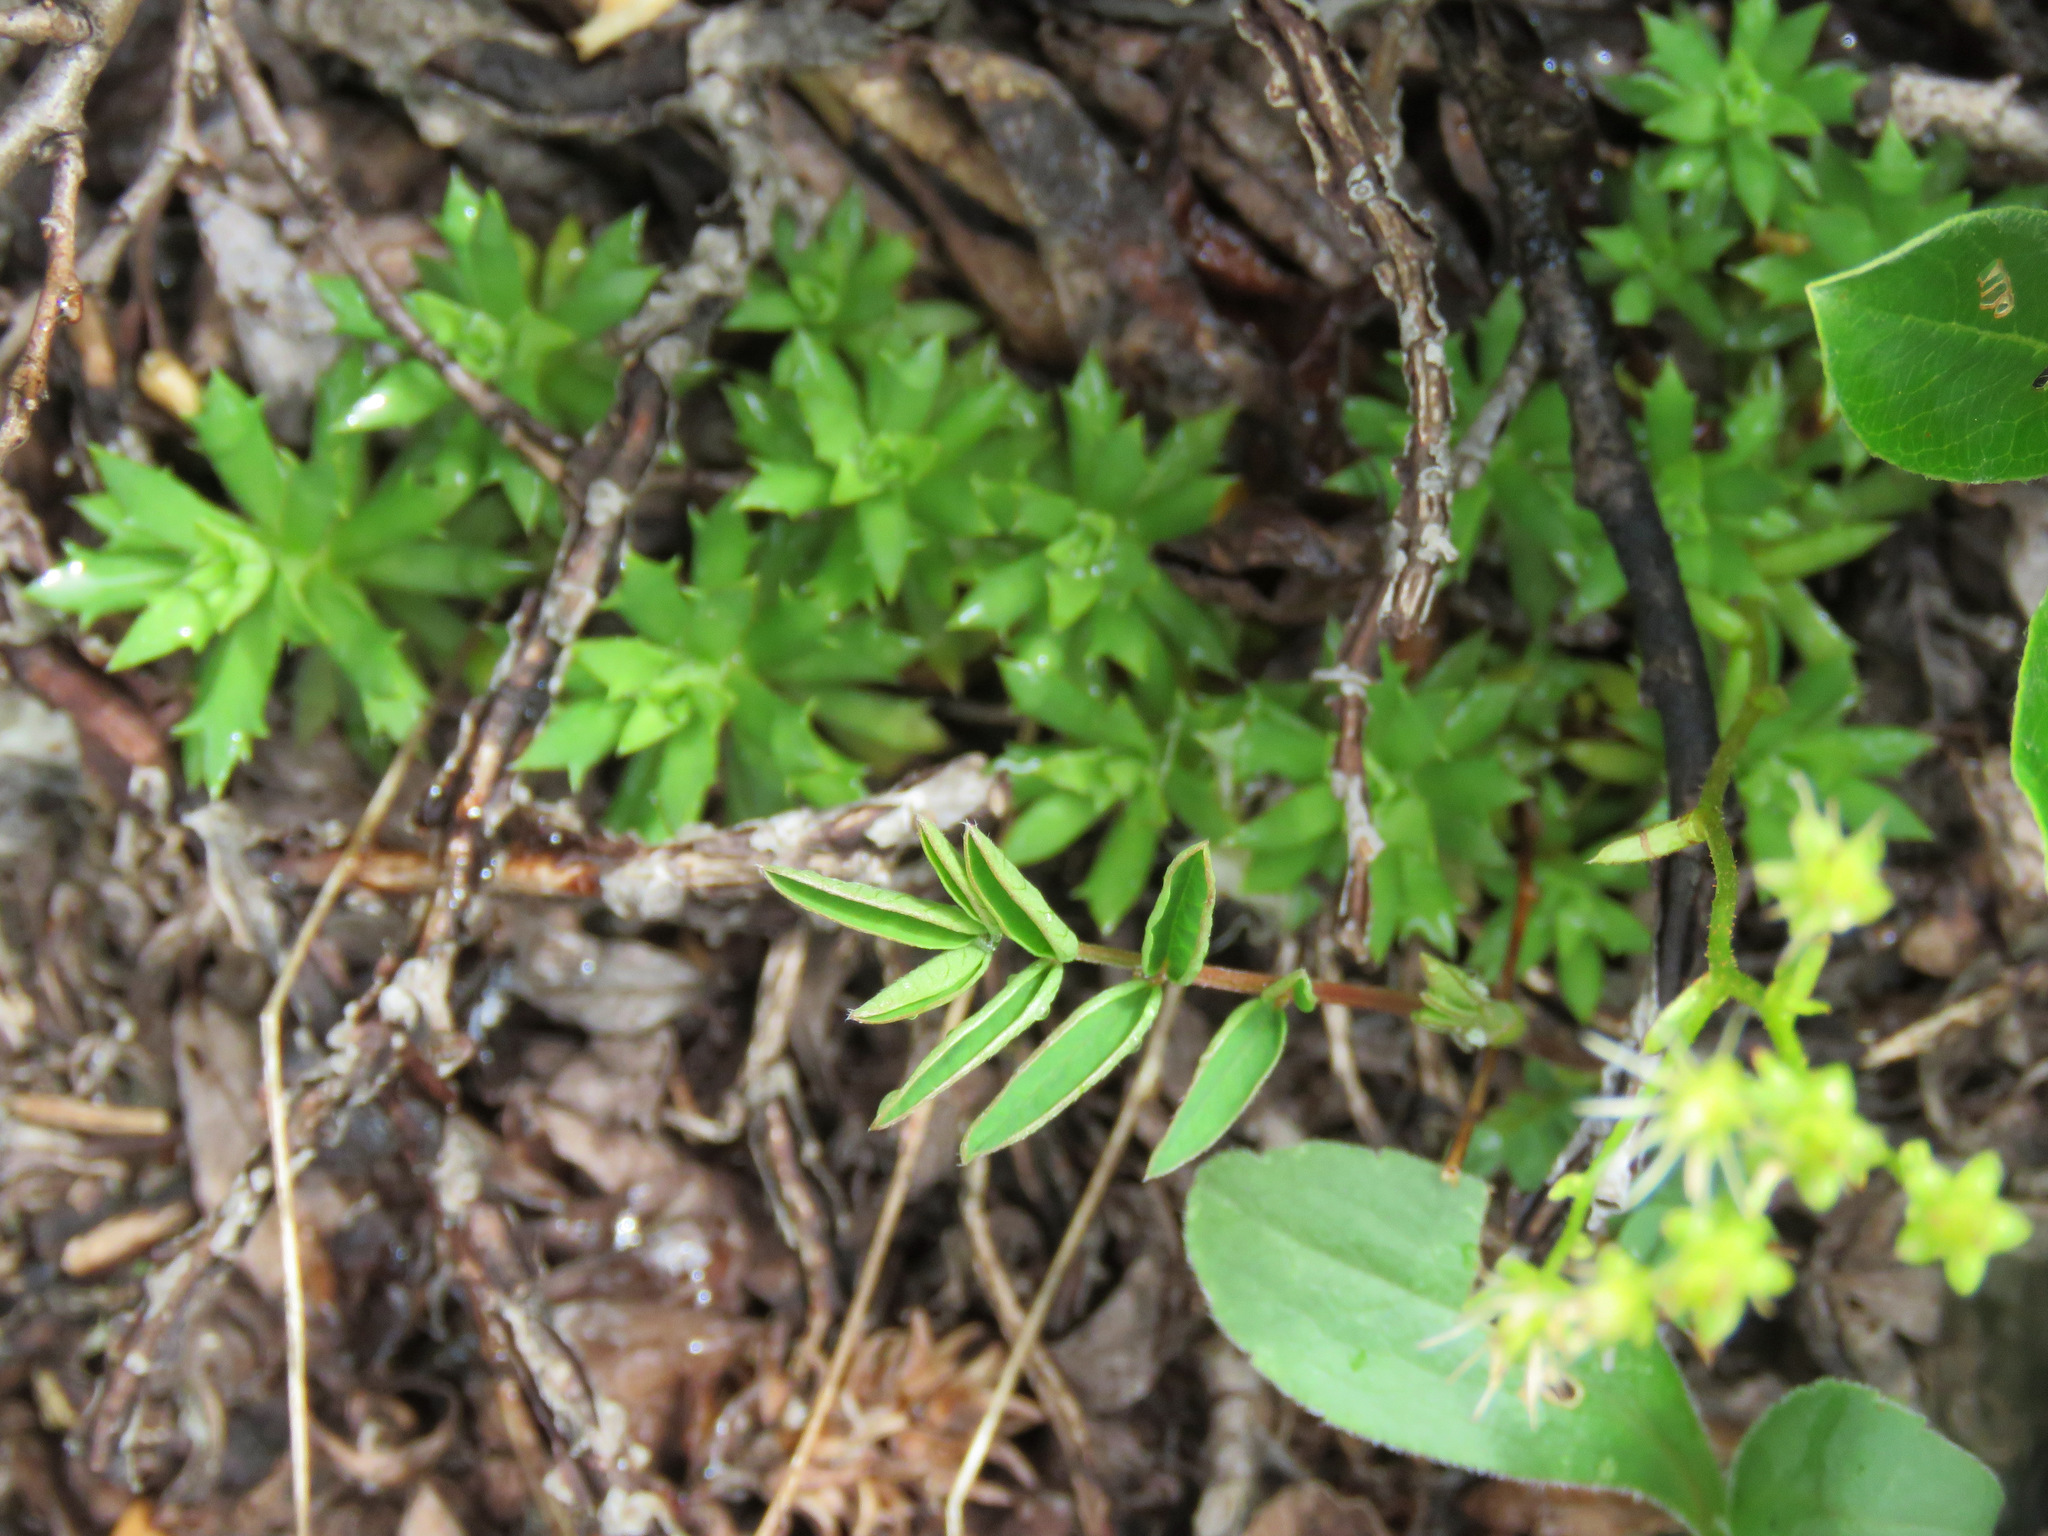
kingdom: Plantae
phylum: Tracheophyta
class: Magnoliopsida
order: Saxifragales
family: Saxifragaceae
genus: Saxifraga
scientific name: Saxifraga tricuspidata
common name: Prickly saxifrage
